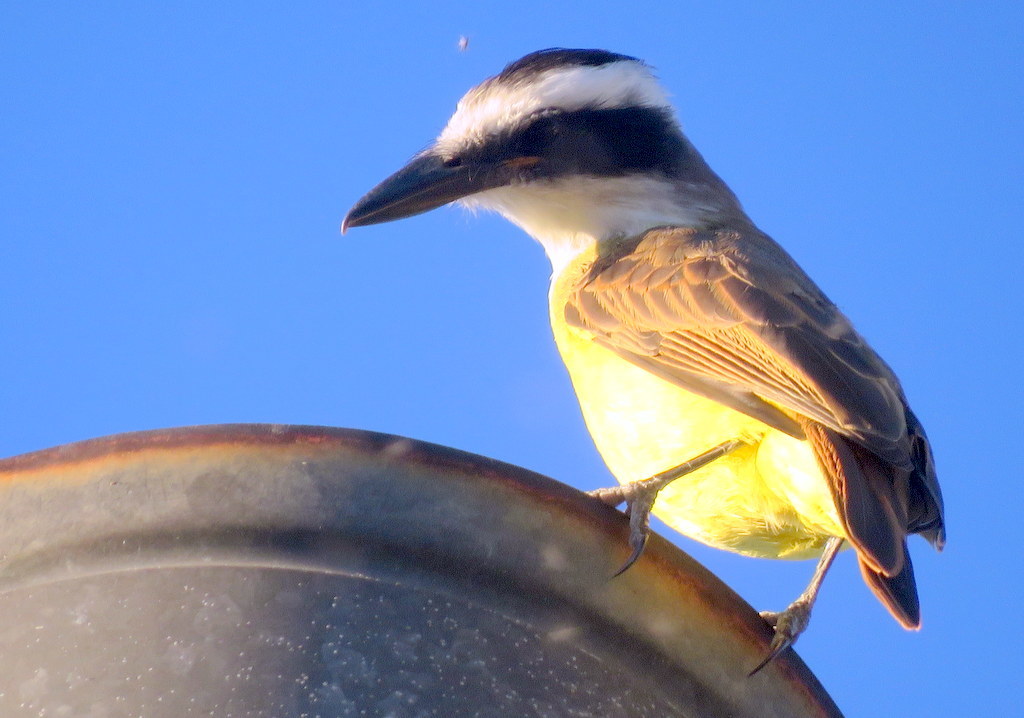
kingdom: Animalia
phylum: Chordata
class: Aves
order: Passeriformes
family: Tyrannidae
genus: Pitangus
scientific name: Pitangus sulphuratus
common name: Great kiskadee
